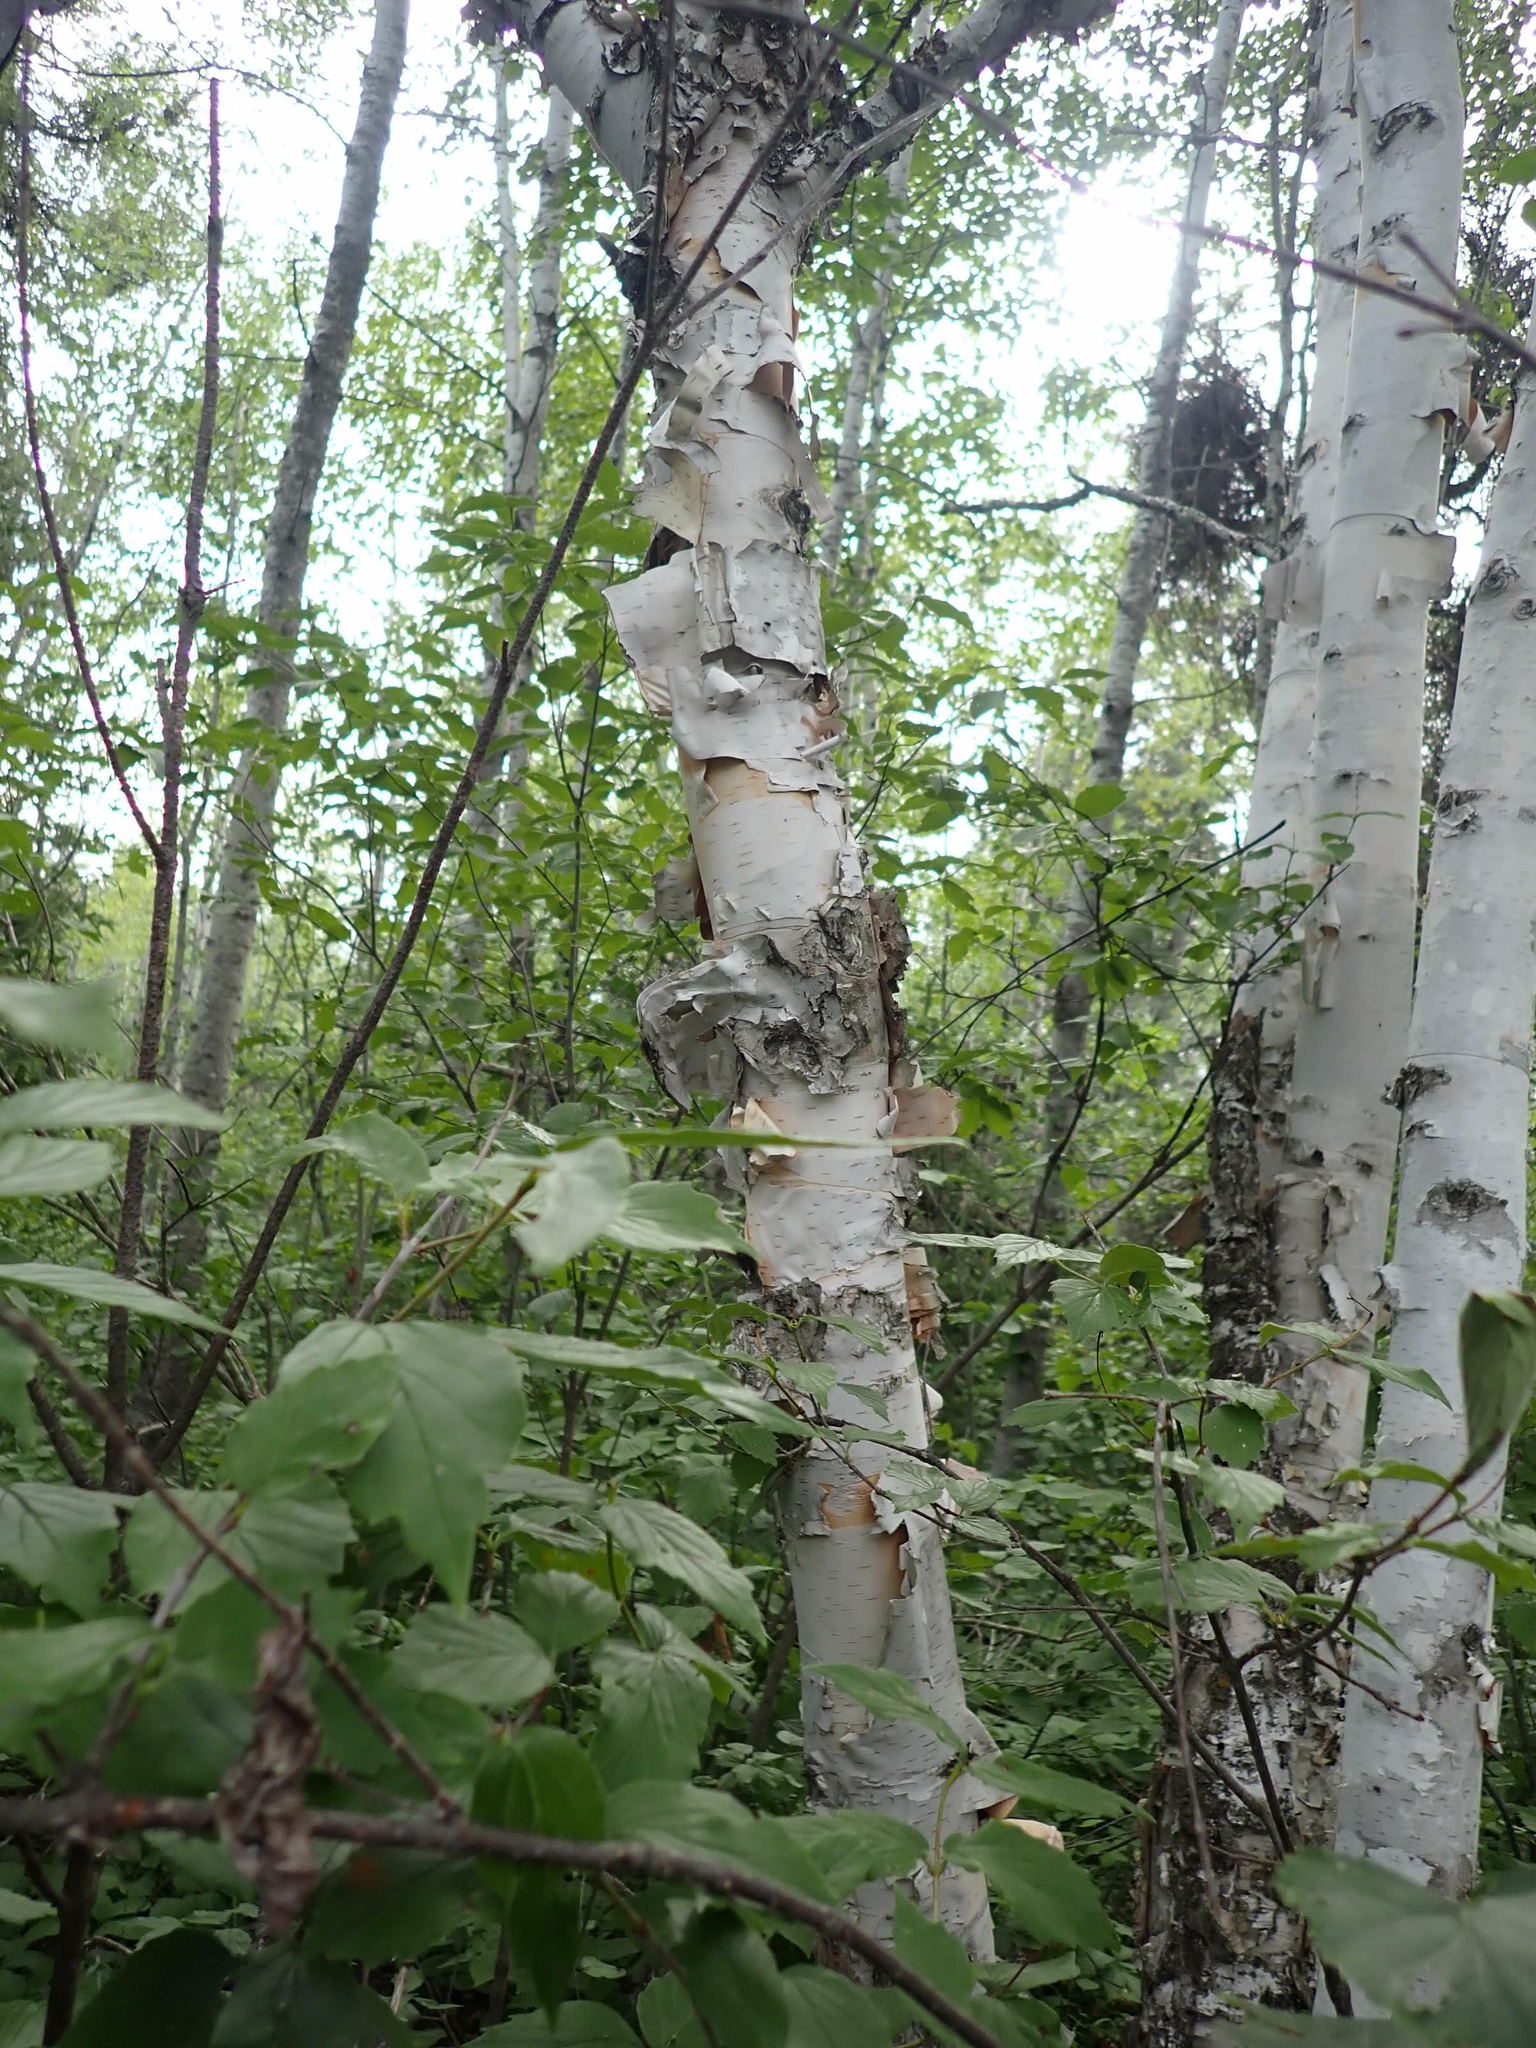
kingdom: Plantae
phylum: Tracheophyta
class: Magnoliopsida
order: Fagales
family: Betulaceae
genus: Betula
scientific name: Betula papyrifera
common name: Paper birch
